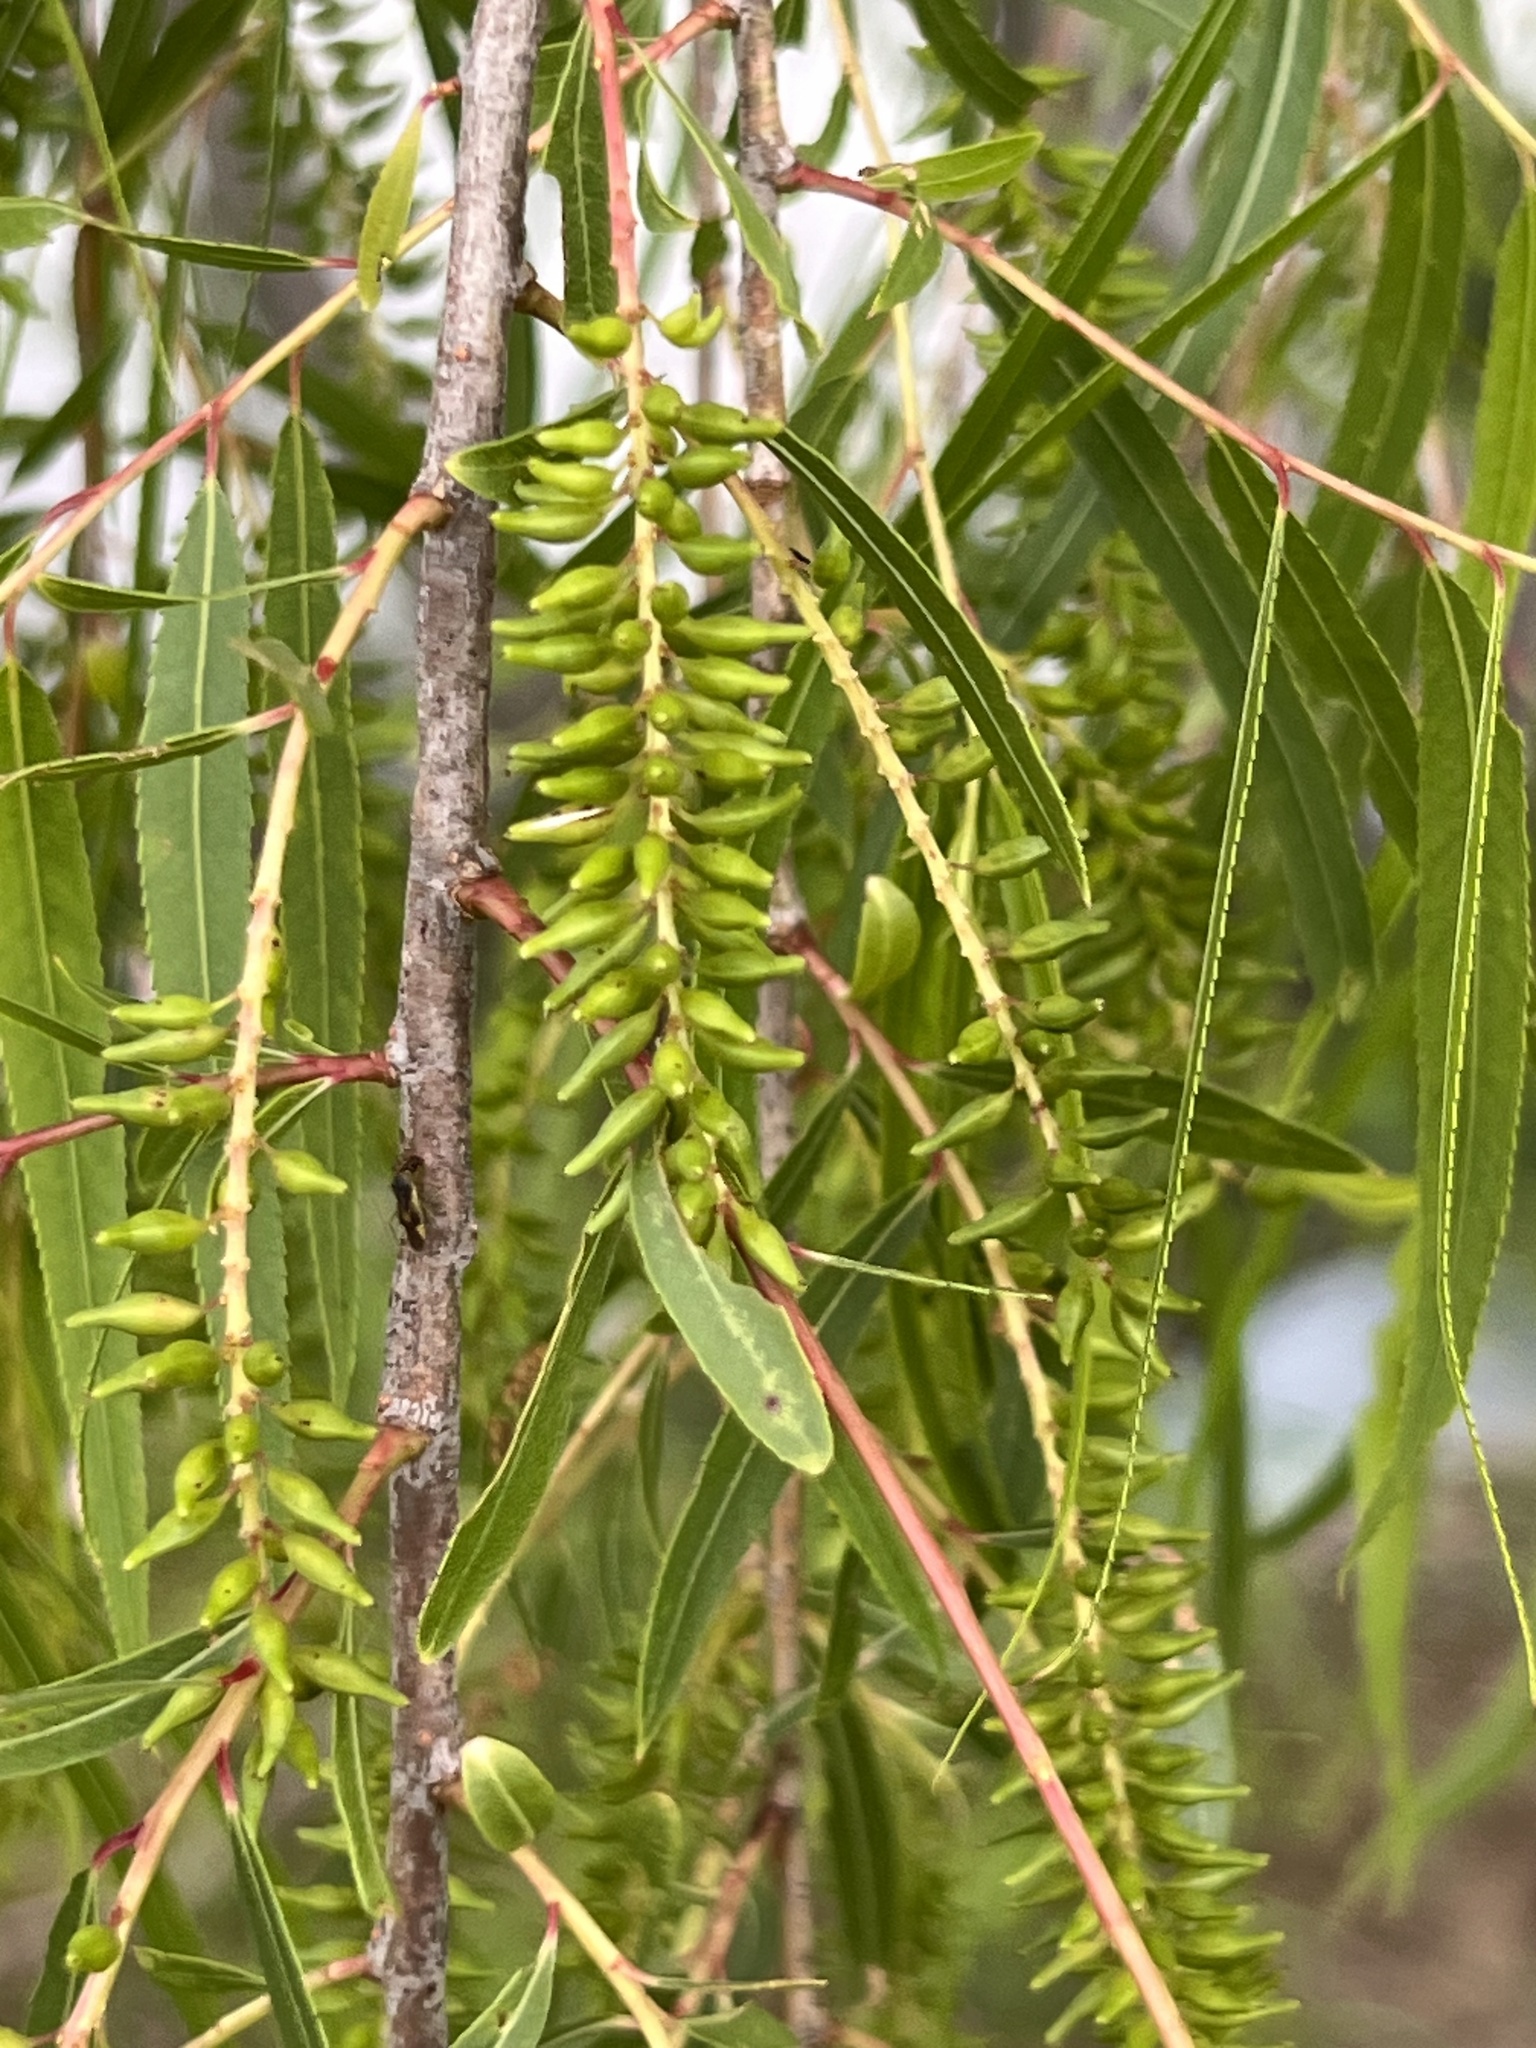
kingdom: Plantae
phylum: Tracheophyta
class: Magnoliopsida
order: Malpighiales
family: Salicaceae
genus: Salix
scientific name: Salix nigra
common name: Black willow
